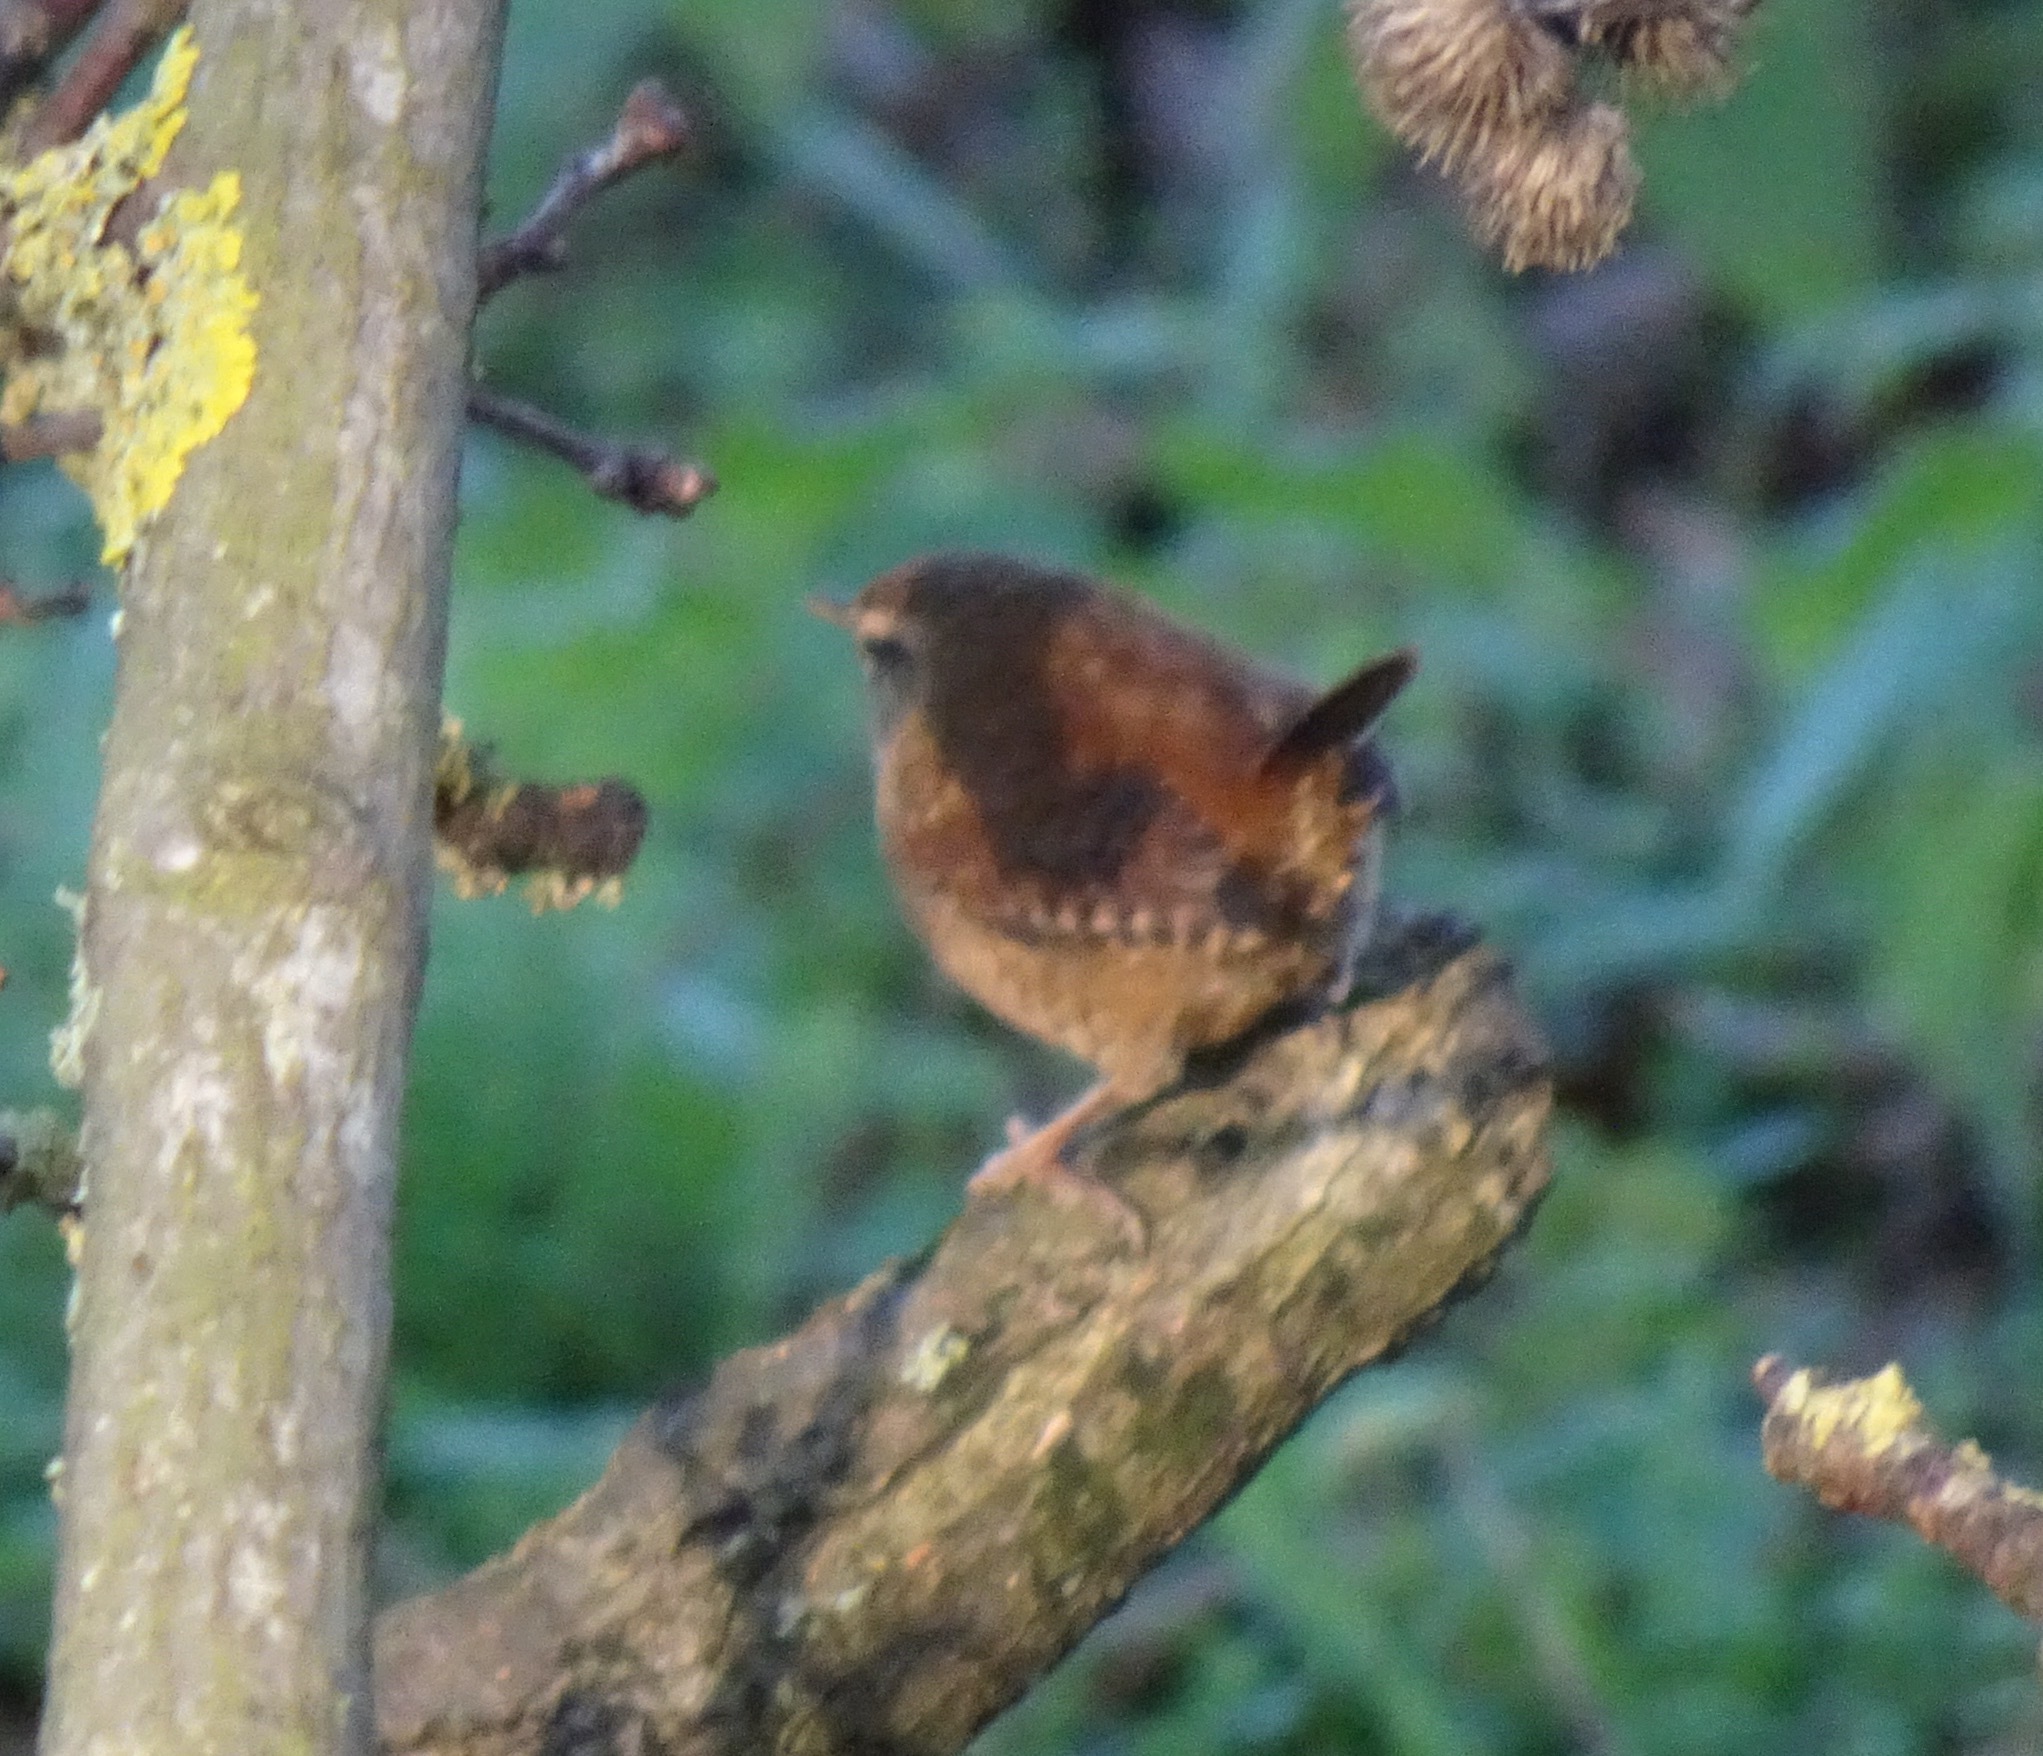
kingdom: Animalia
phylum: Chordata
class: Aves
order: Passeriformes
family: Troglodytidae
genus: Troglodytes
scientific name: Troglodytes troglodytes
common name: Eurasian wren
